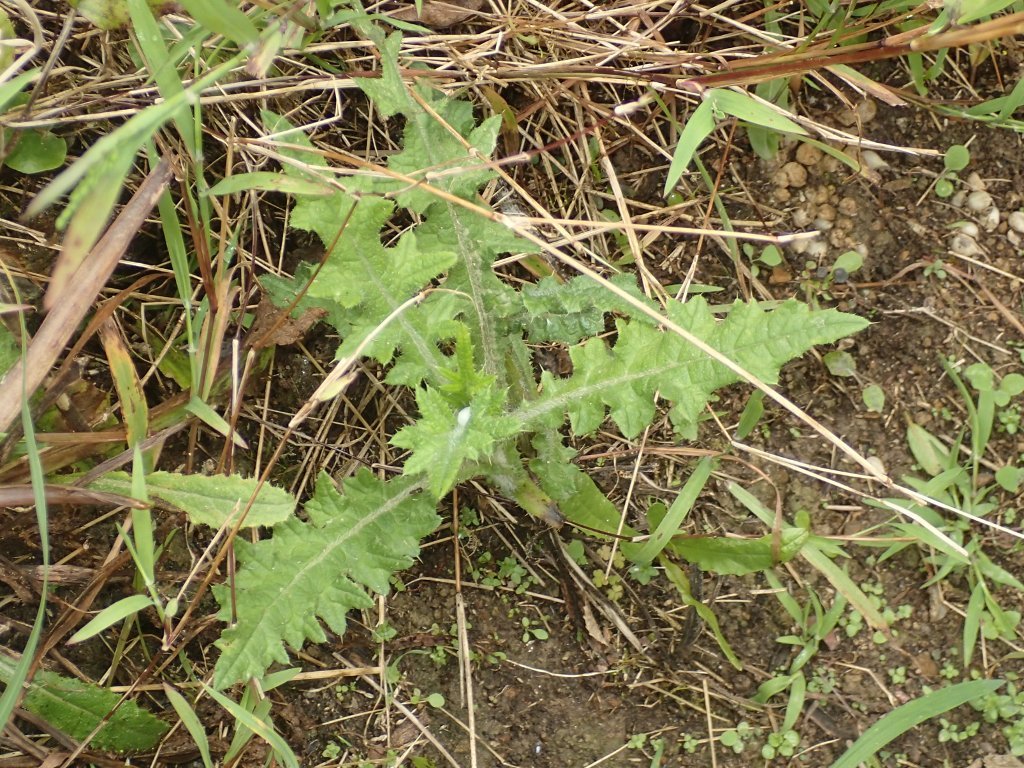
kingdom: Plantae
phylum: Tracheophyta
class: Magnoliopsida
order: Asterales
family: Asteraceae
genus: Cirsium
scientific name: Cirsium vulgare
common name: Bull thistle
